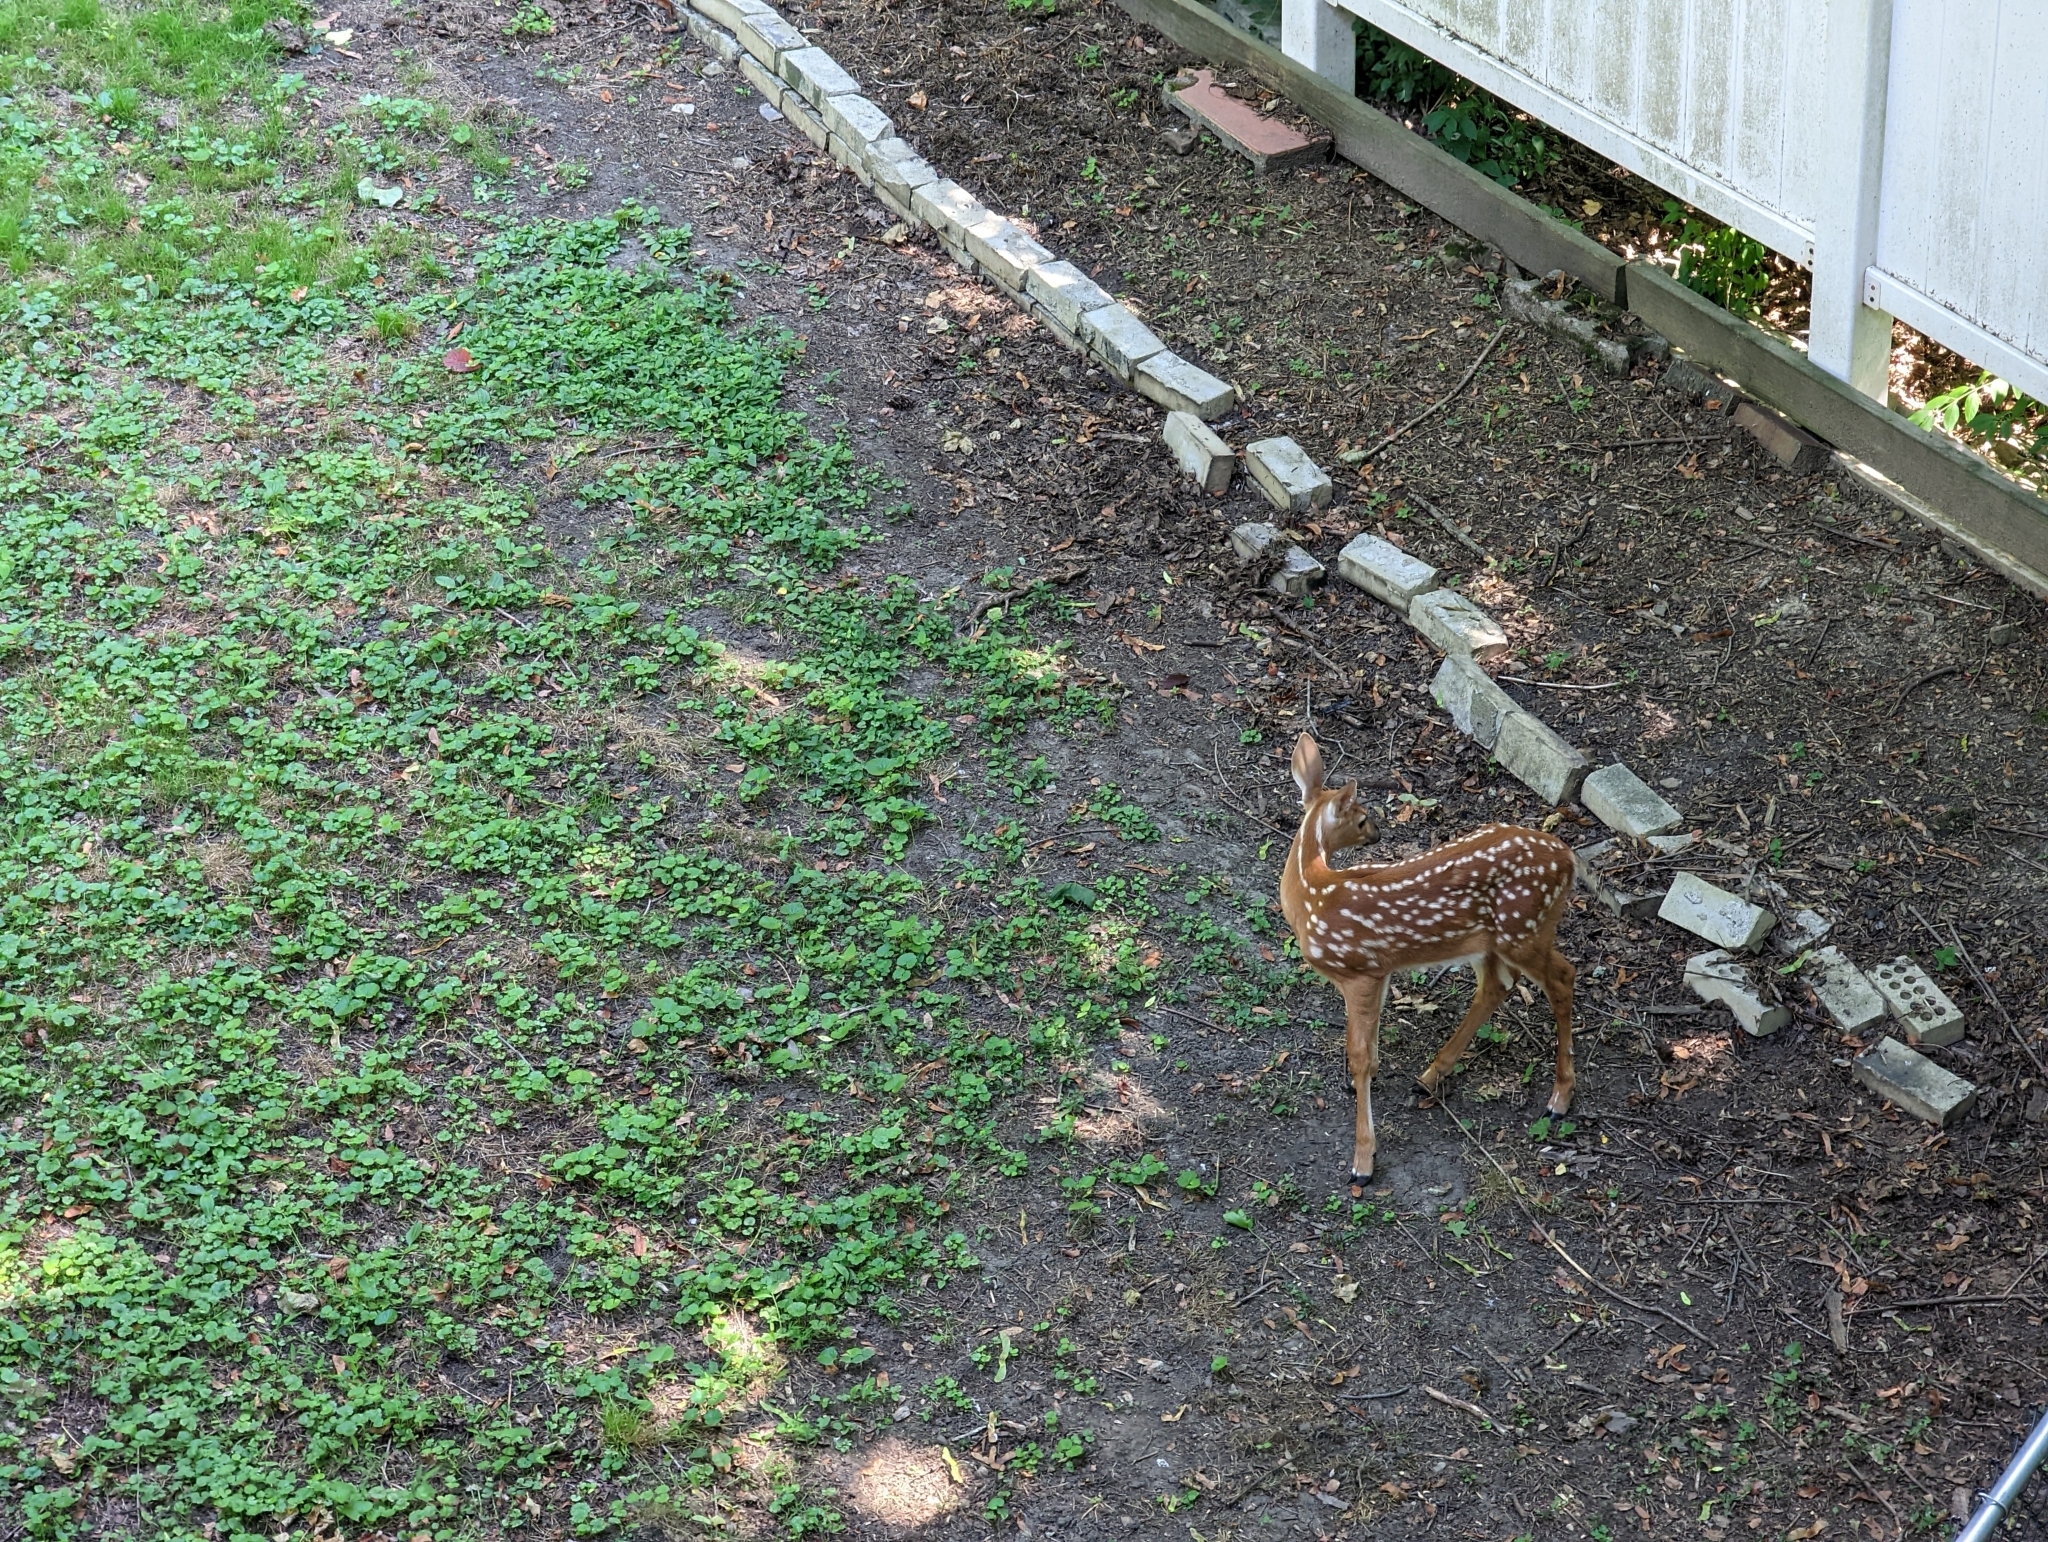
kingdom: Animalia
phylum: Chordata
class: Mammalia
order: Artiodactyla
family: Cervidae
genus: Odocoileus
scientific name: Odocoileus virginianus
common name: White-tailed deer
